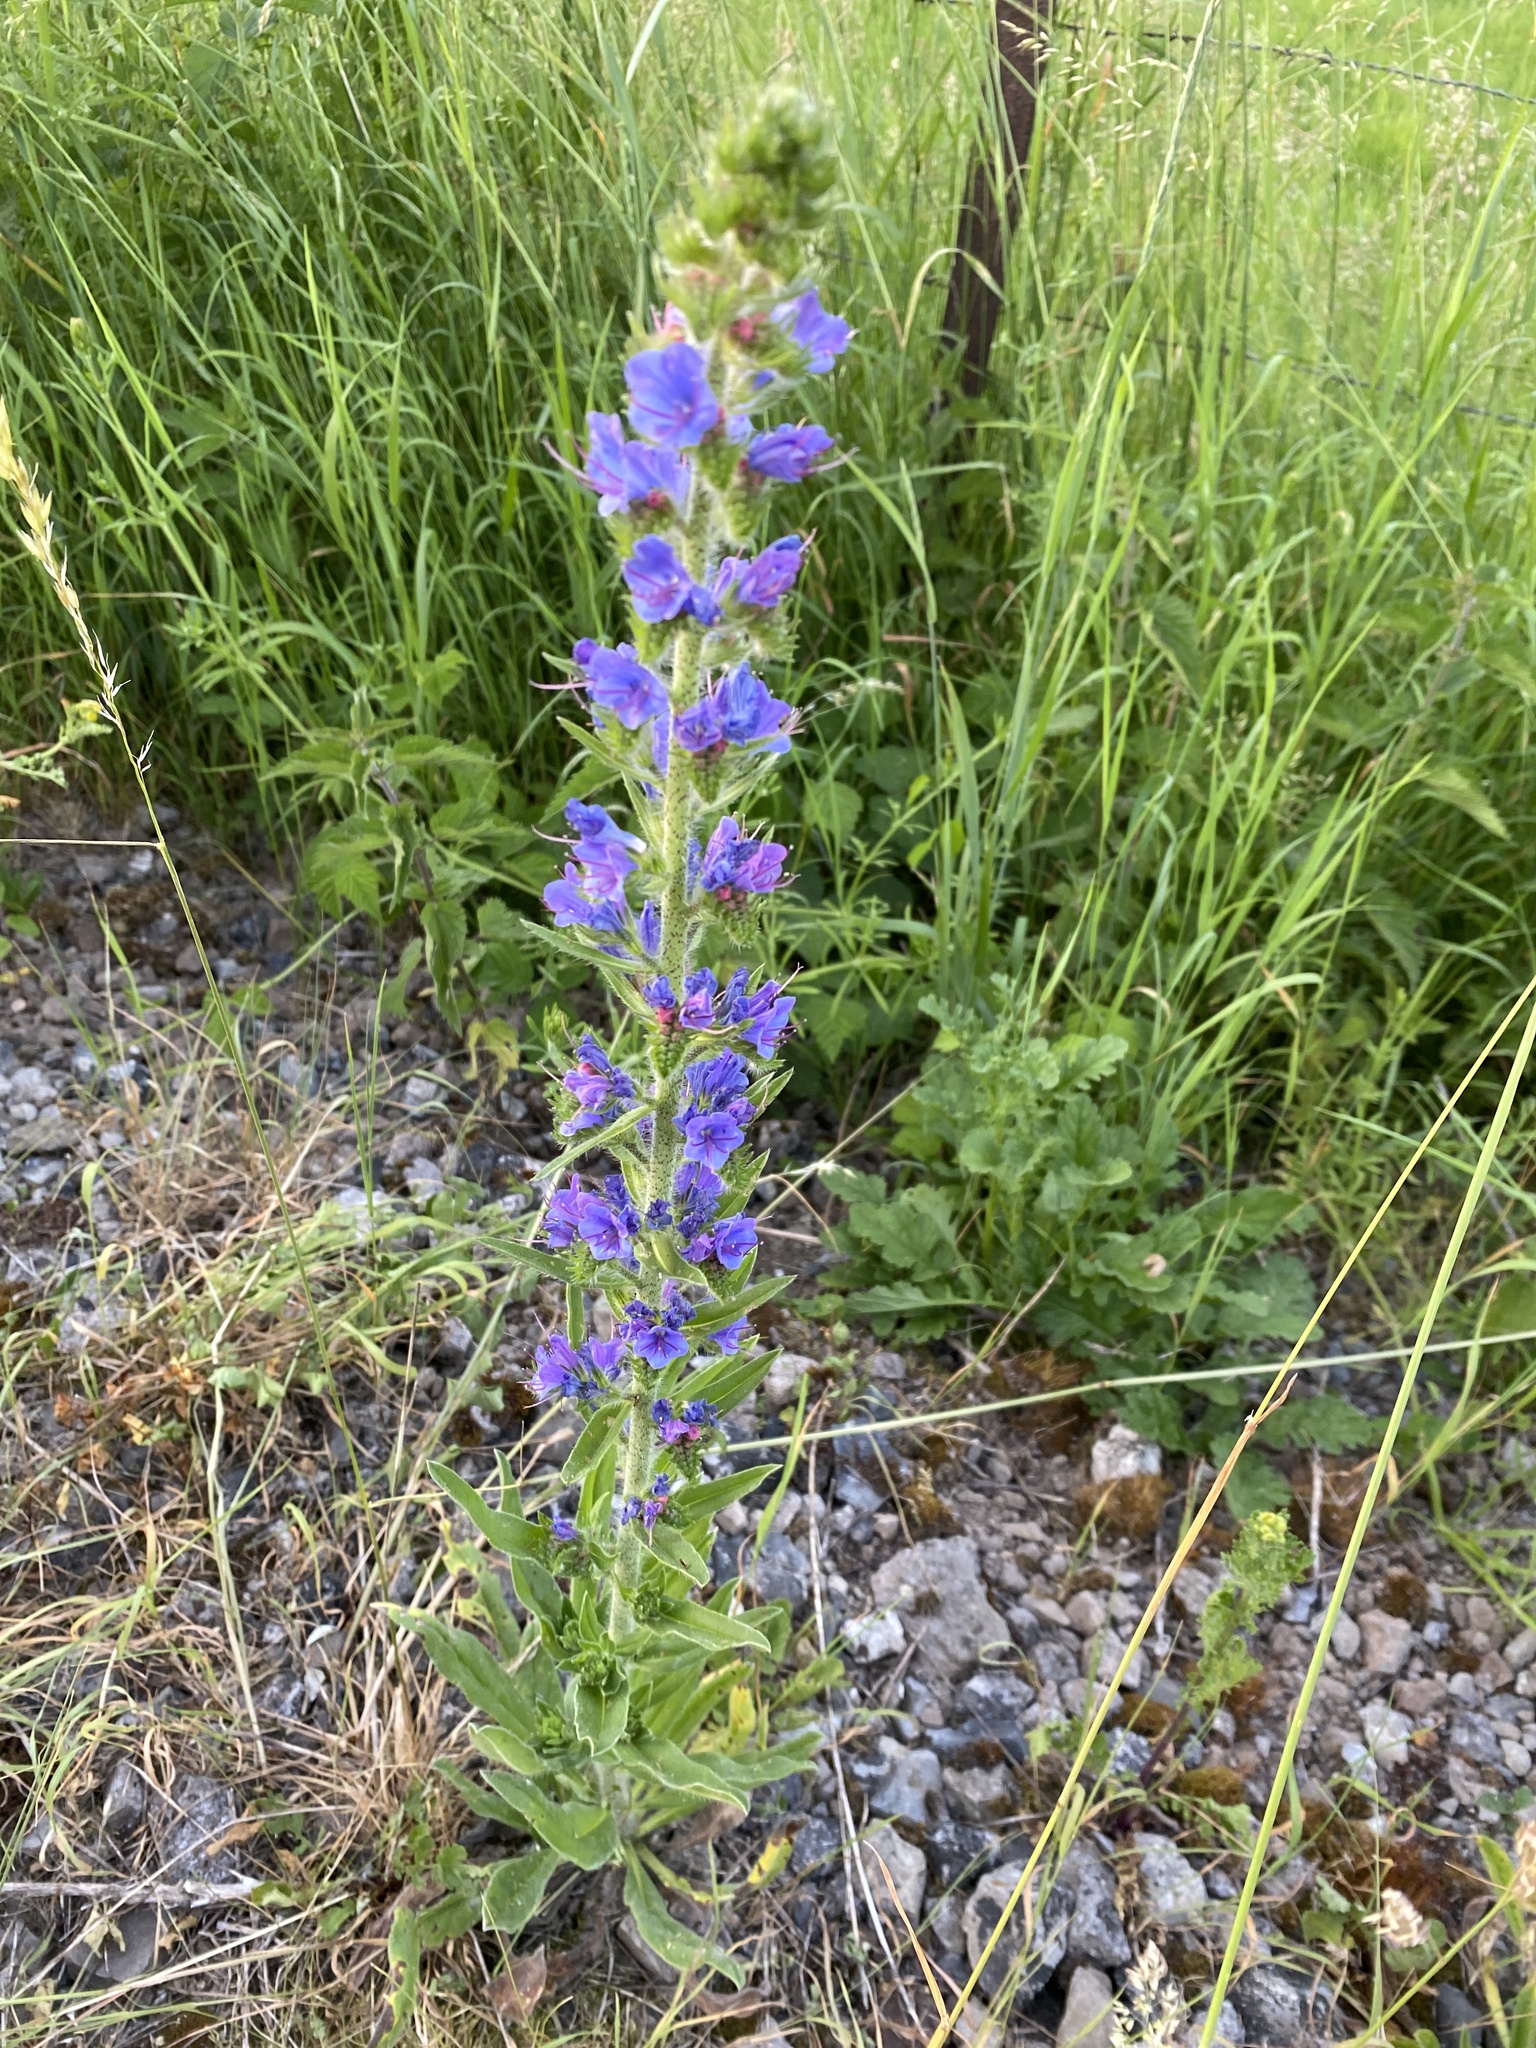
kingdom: Plantae
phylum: Tracheophyta
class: Magnoliopsida
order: Boraginales
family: Boraginaceae
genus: Echium
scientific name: Echium vulgare
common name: Common viper's bugloss
